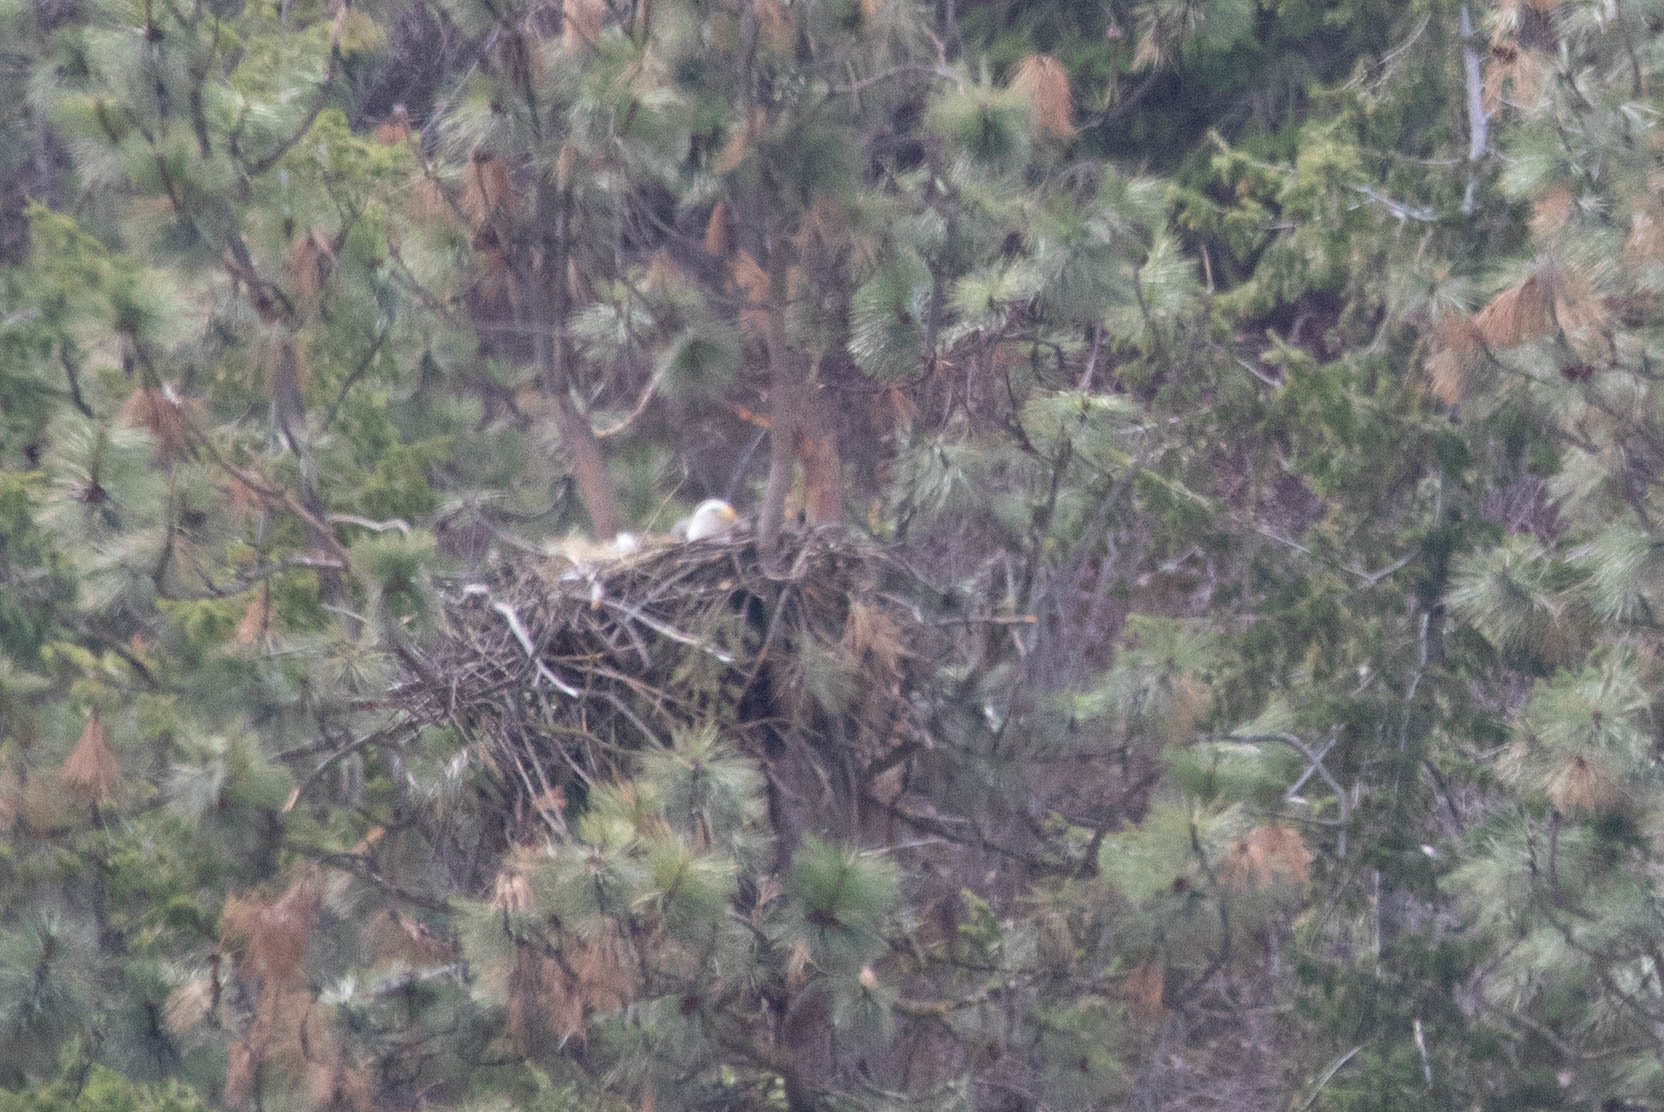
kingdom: Animalia
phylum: Chordata
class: Aves
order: Accipitriformes
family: Accipitridae
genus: Haliaeetus
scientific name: Haliaeetus leucocephalus
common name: Bald eagle
